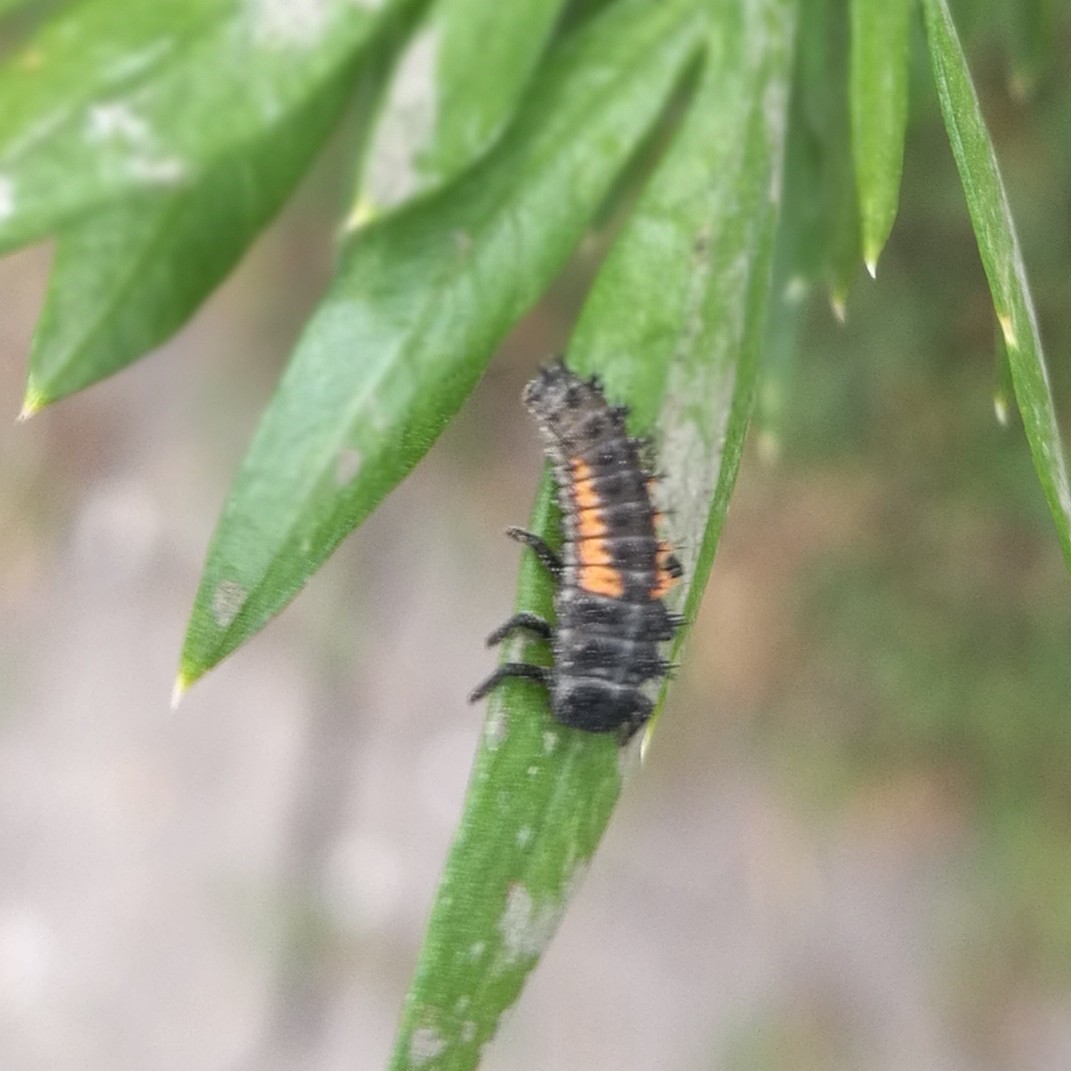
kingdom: Animalia
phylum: Arthropoda
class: Insecta
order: Coleoptera
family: Coccinellidae
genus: Harmonia
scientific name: Harmonia axyridis
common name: Harlequin ladybird
